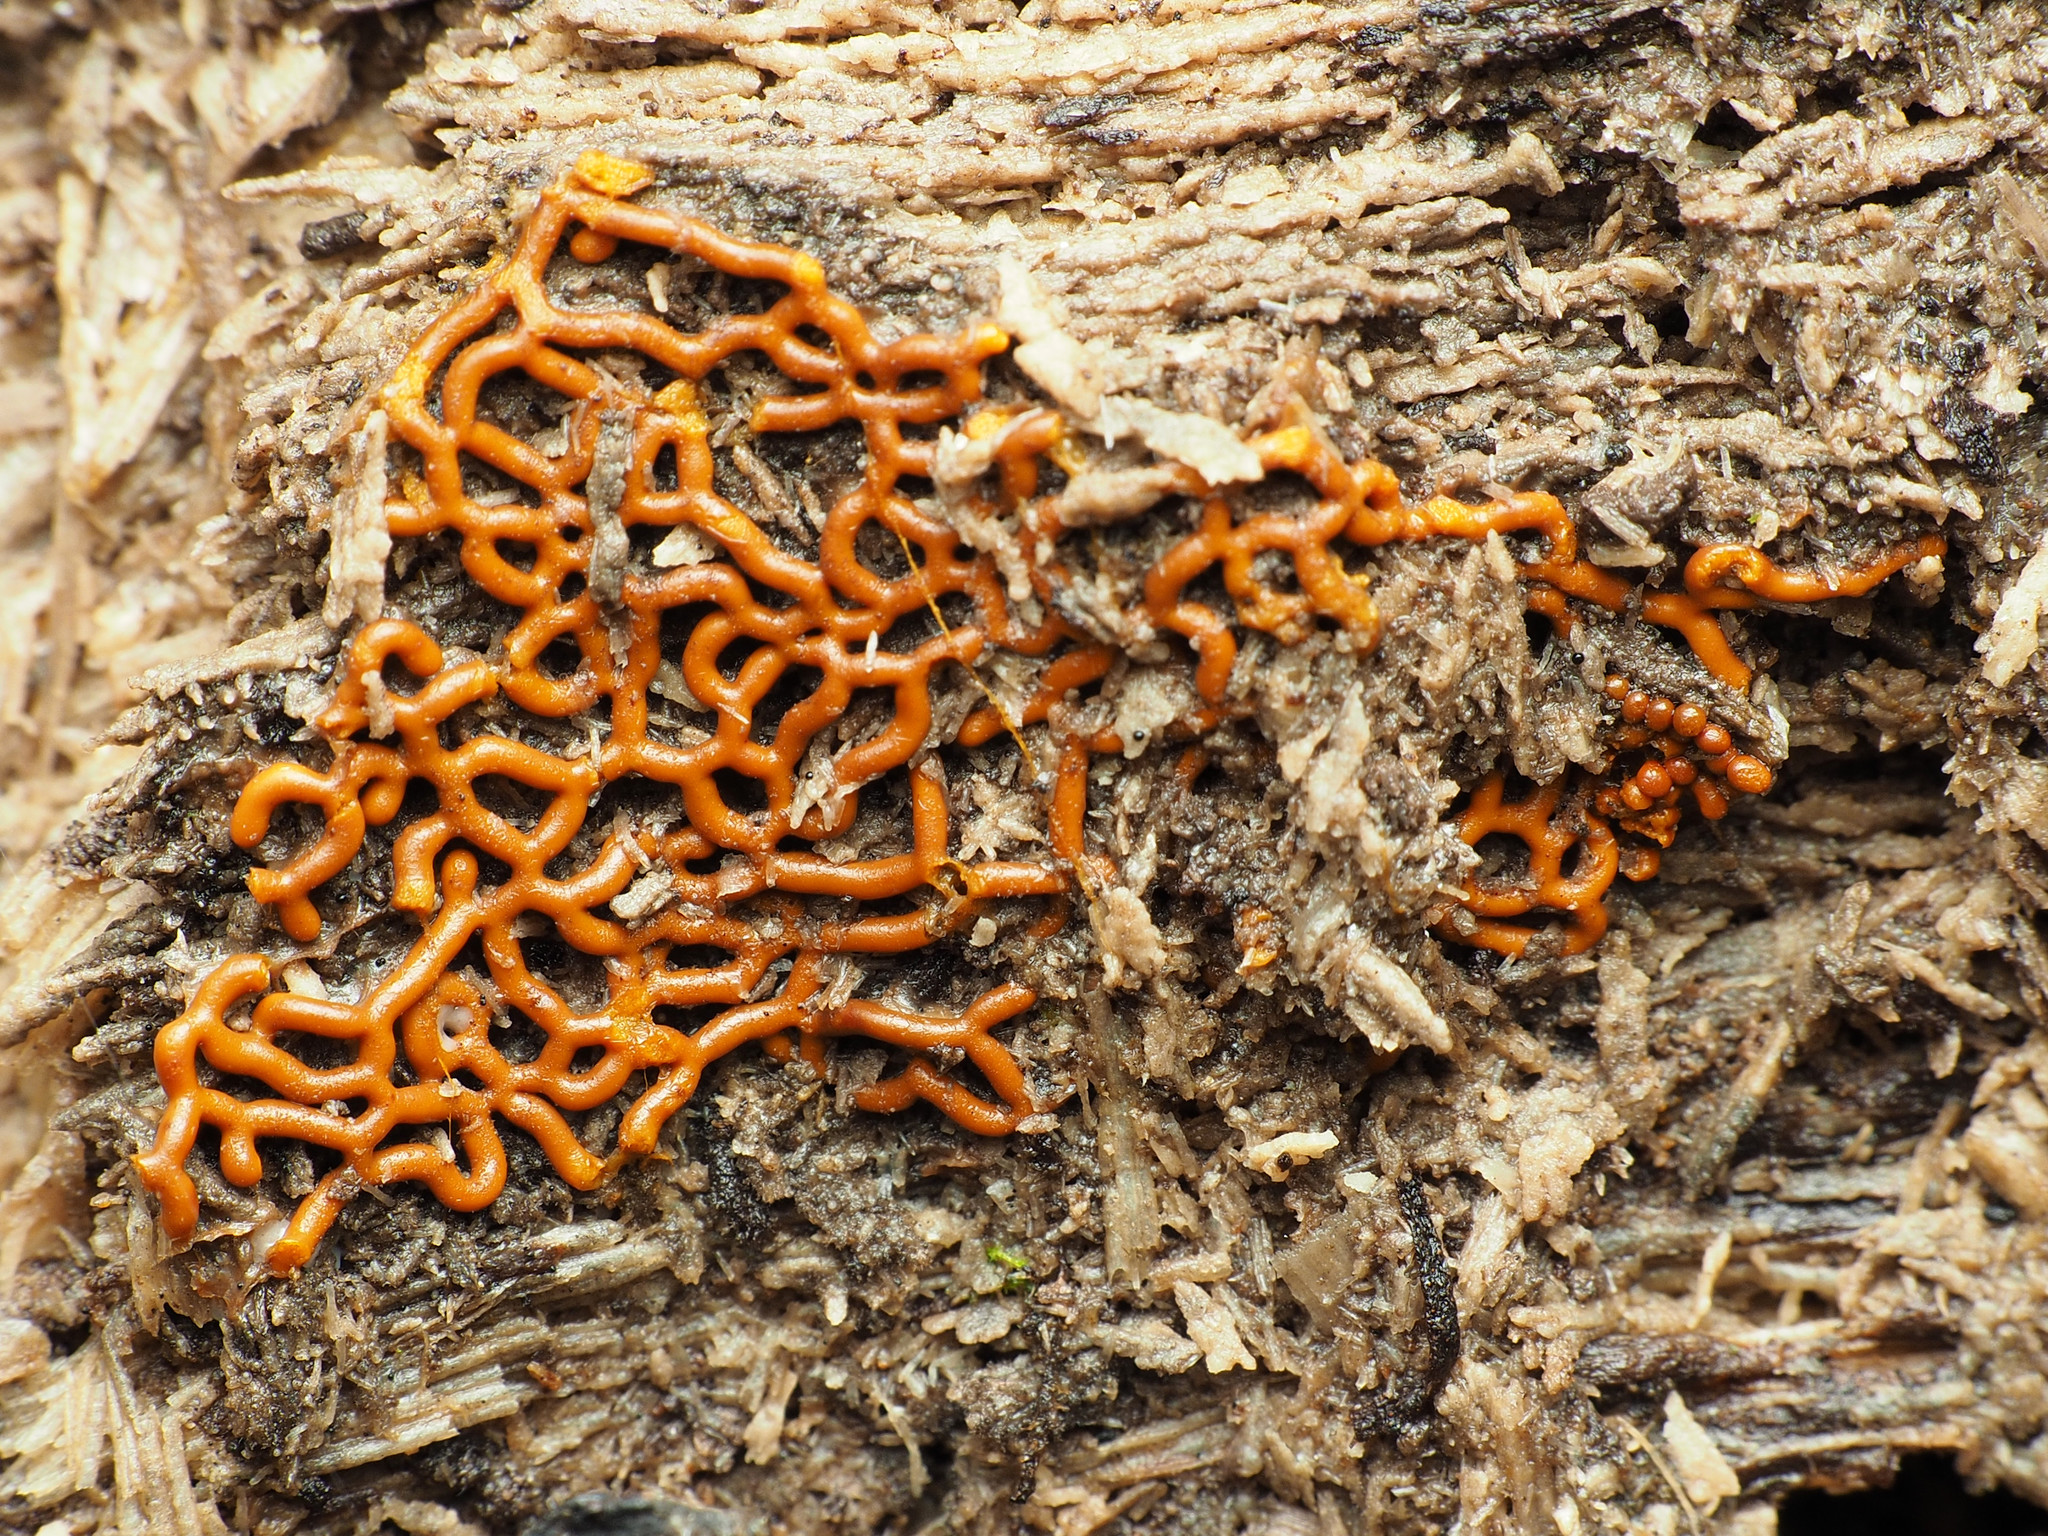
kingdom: Protozoa
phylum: Mycetozoa
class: Myxomycetes
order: Trichiales
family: Arcyriaceae
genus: Hemitrichia
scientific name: Hemitrichia serpula
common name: Pretzel slime mold
